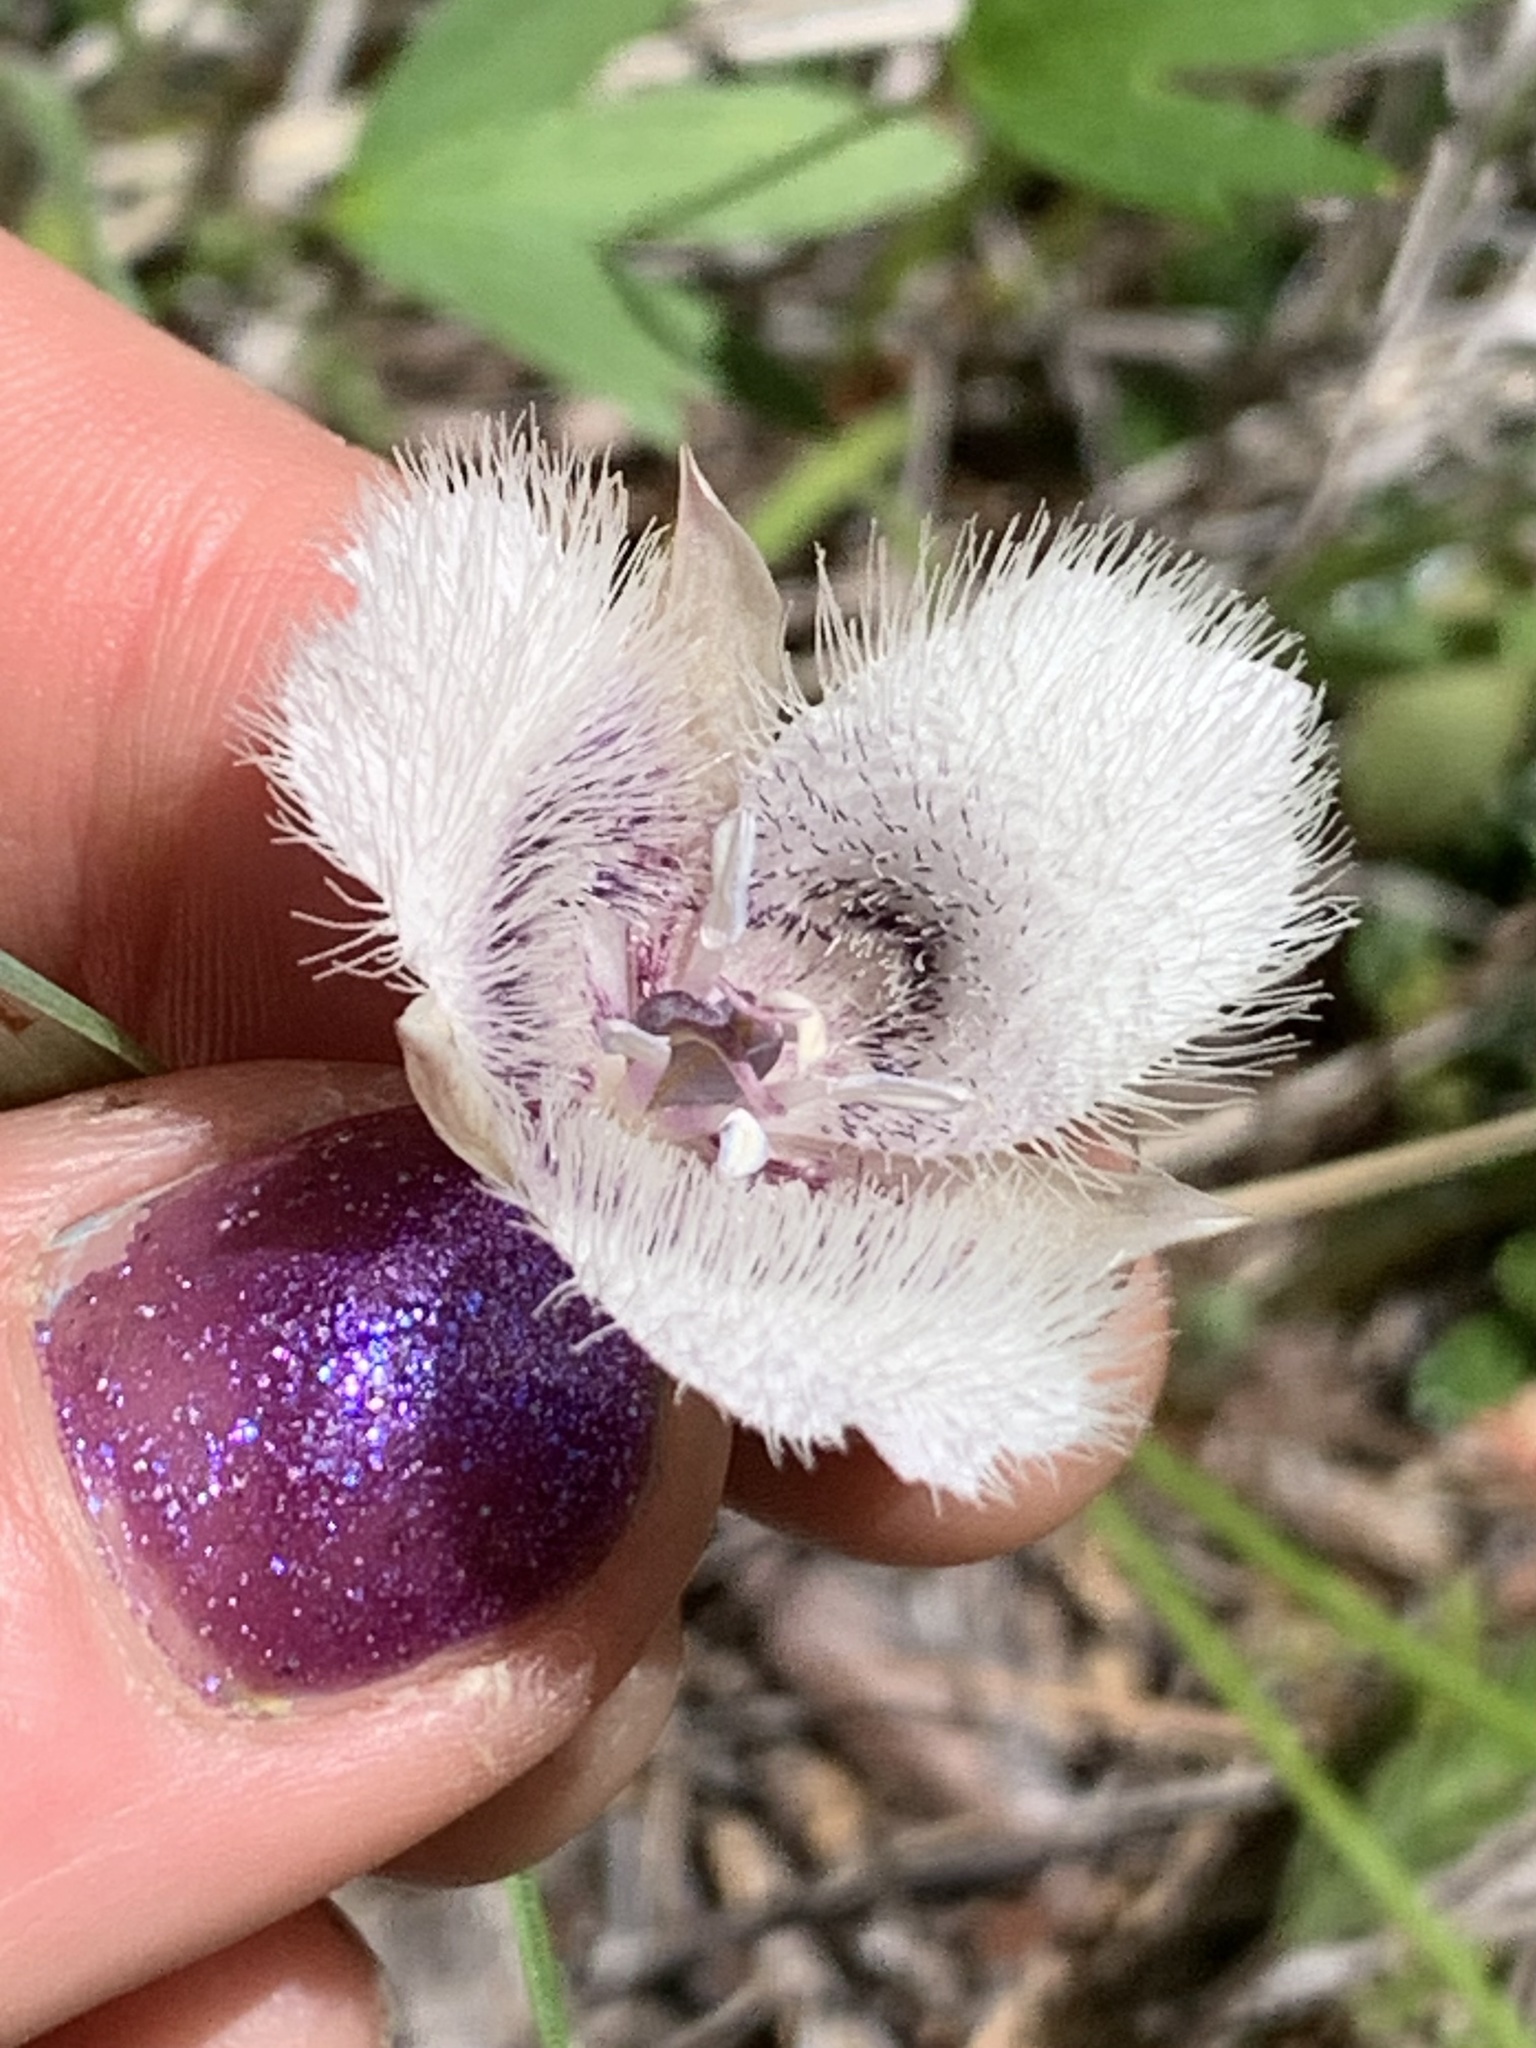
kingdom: Plantae
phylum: Tracheophyta
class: Liliopsida
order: Liliales
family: Liliaceae
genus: Calochortus
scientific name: Calochortus tolmiei
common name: Pussy-ears
